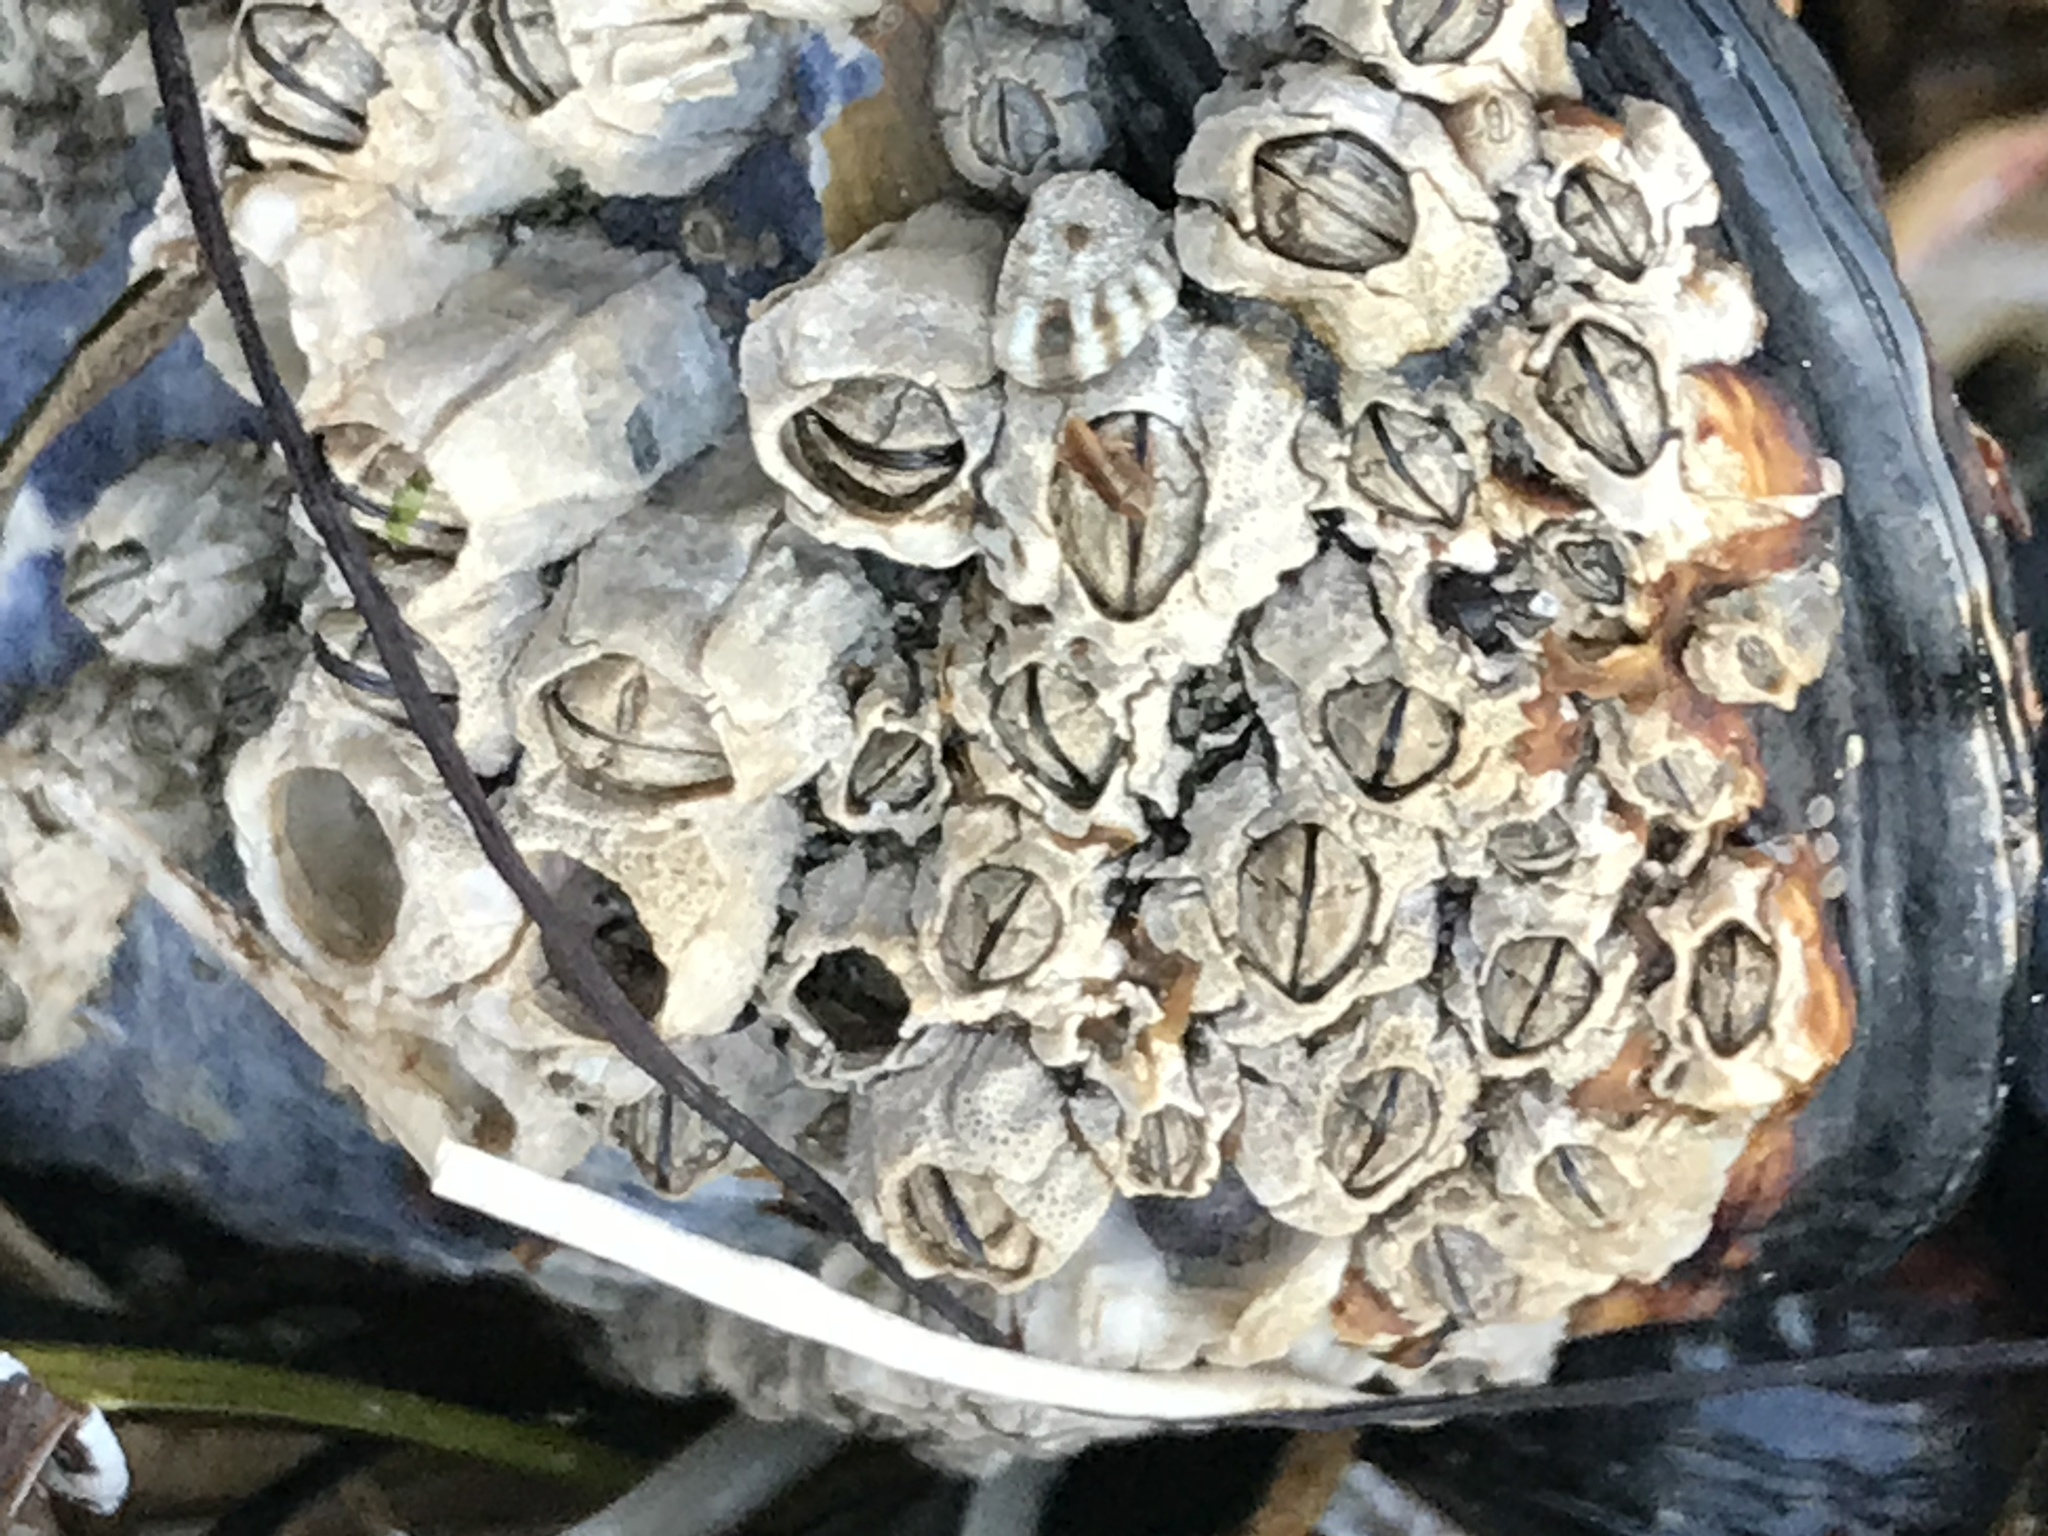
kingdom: Animalia
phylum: Arthropoda
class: Maxillopoda
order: Sessilia
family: Chthamalidae
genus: Chthamalus
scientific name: Chthamalus dalli
